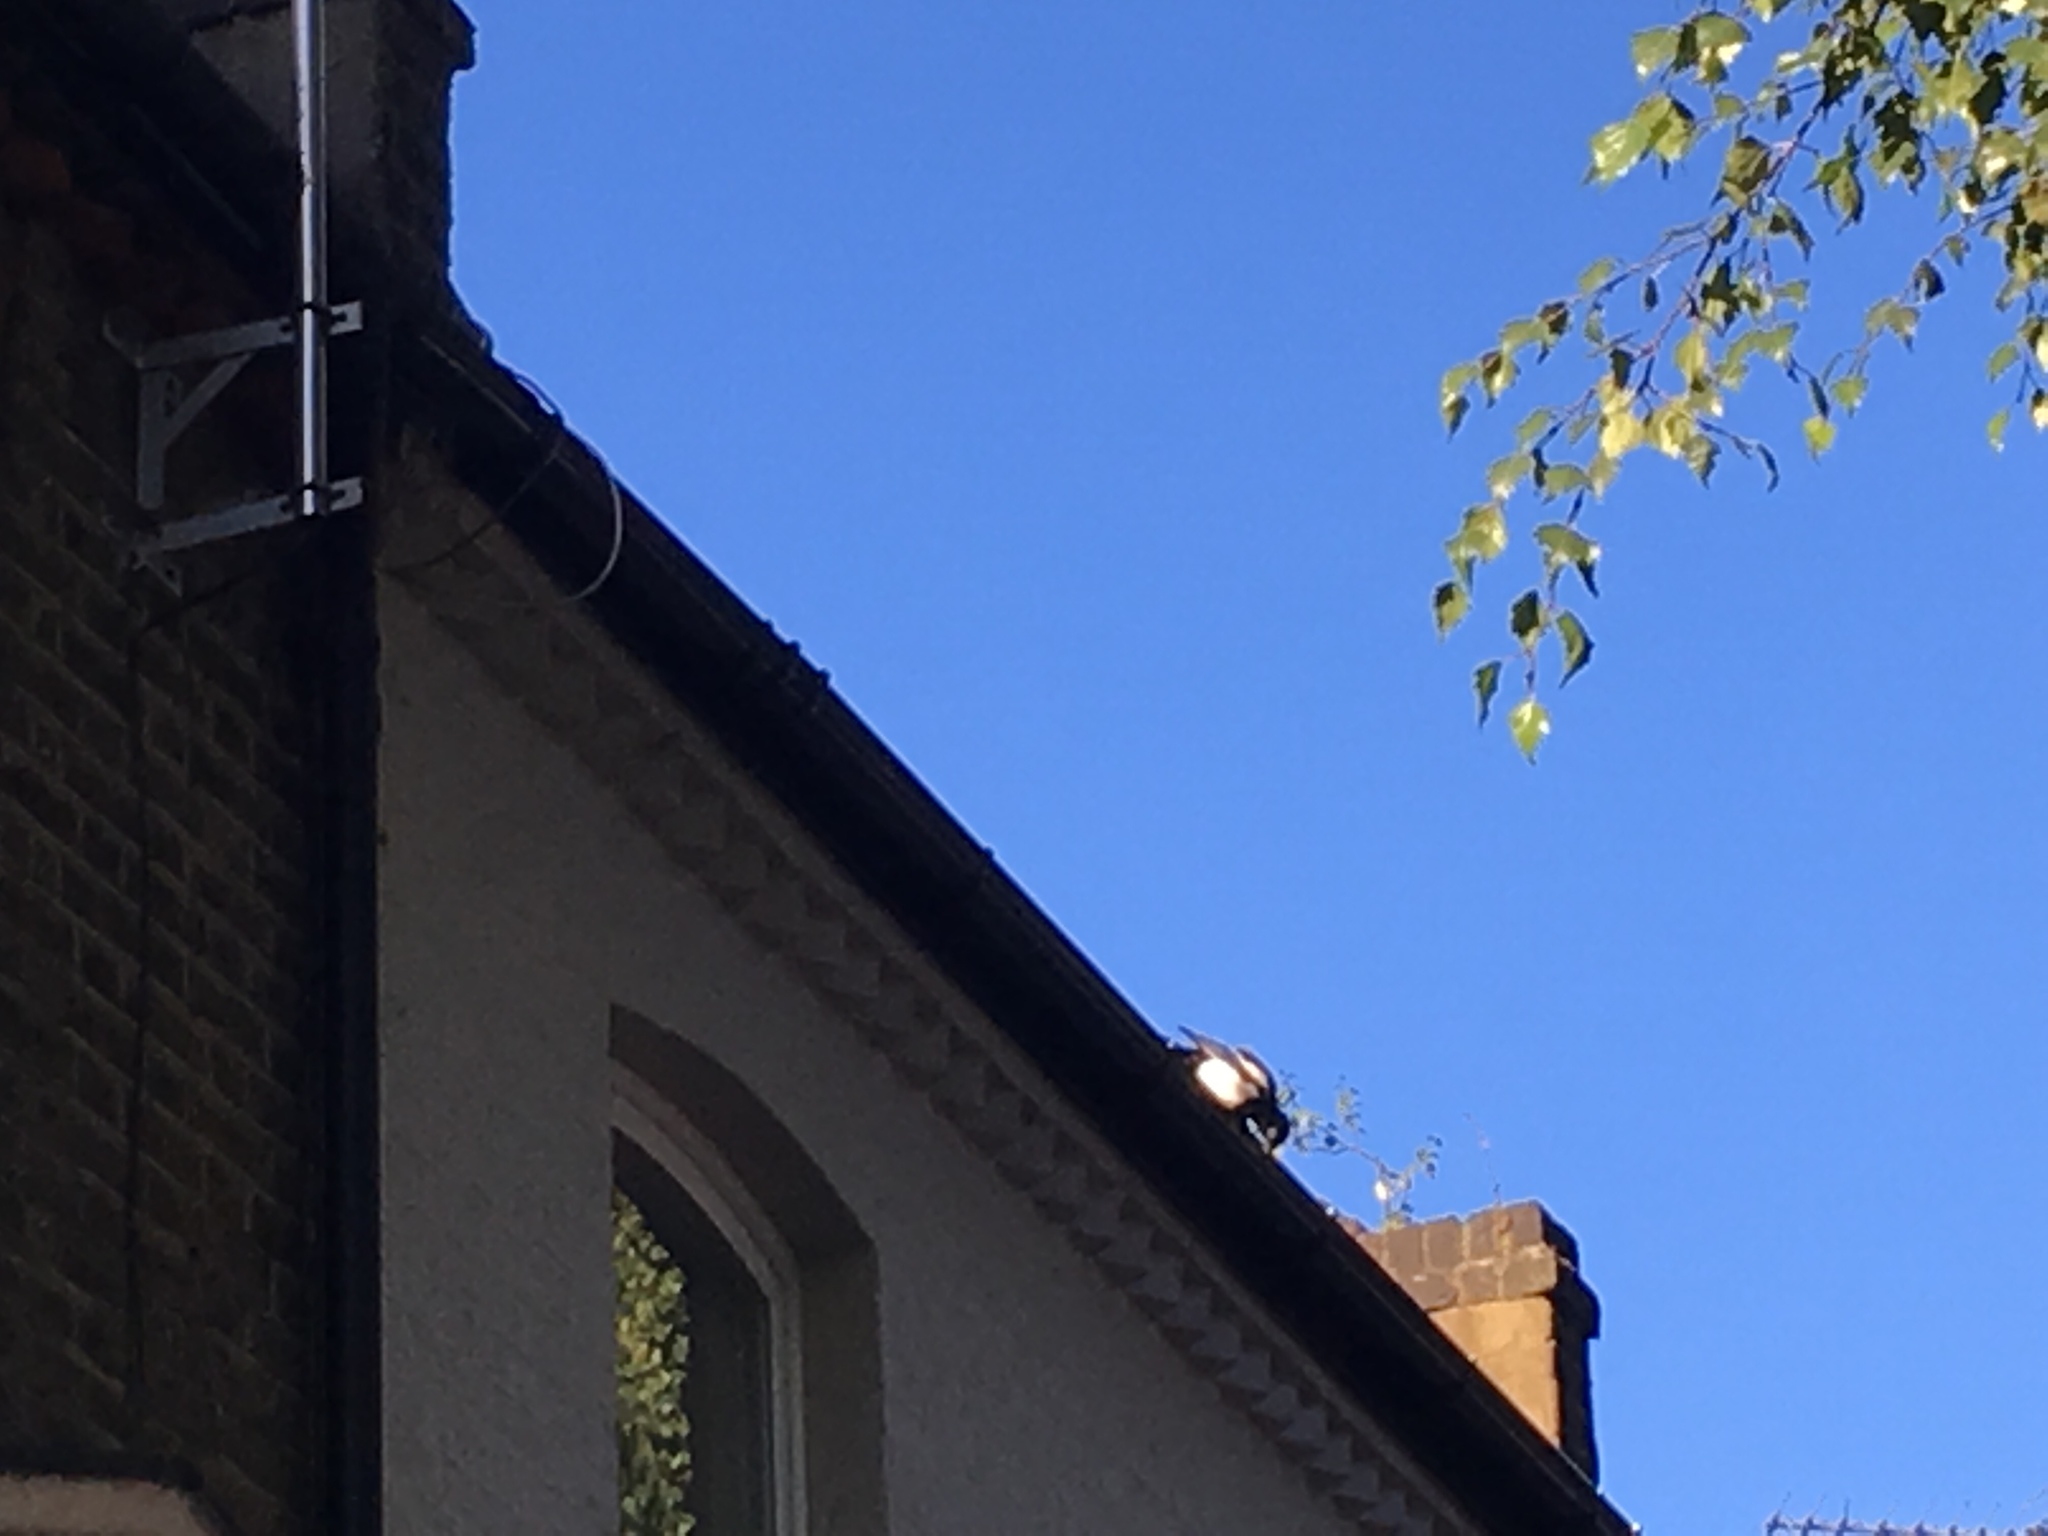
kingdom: Animalia
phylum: Chordata
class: Aves
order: Passeriformes
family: Corvidae
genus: Pica
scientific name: Pica pica
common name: Eurasian magpie
